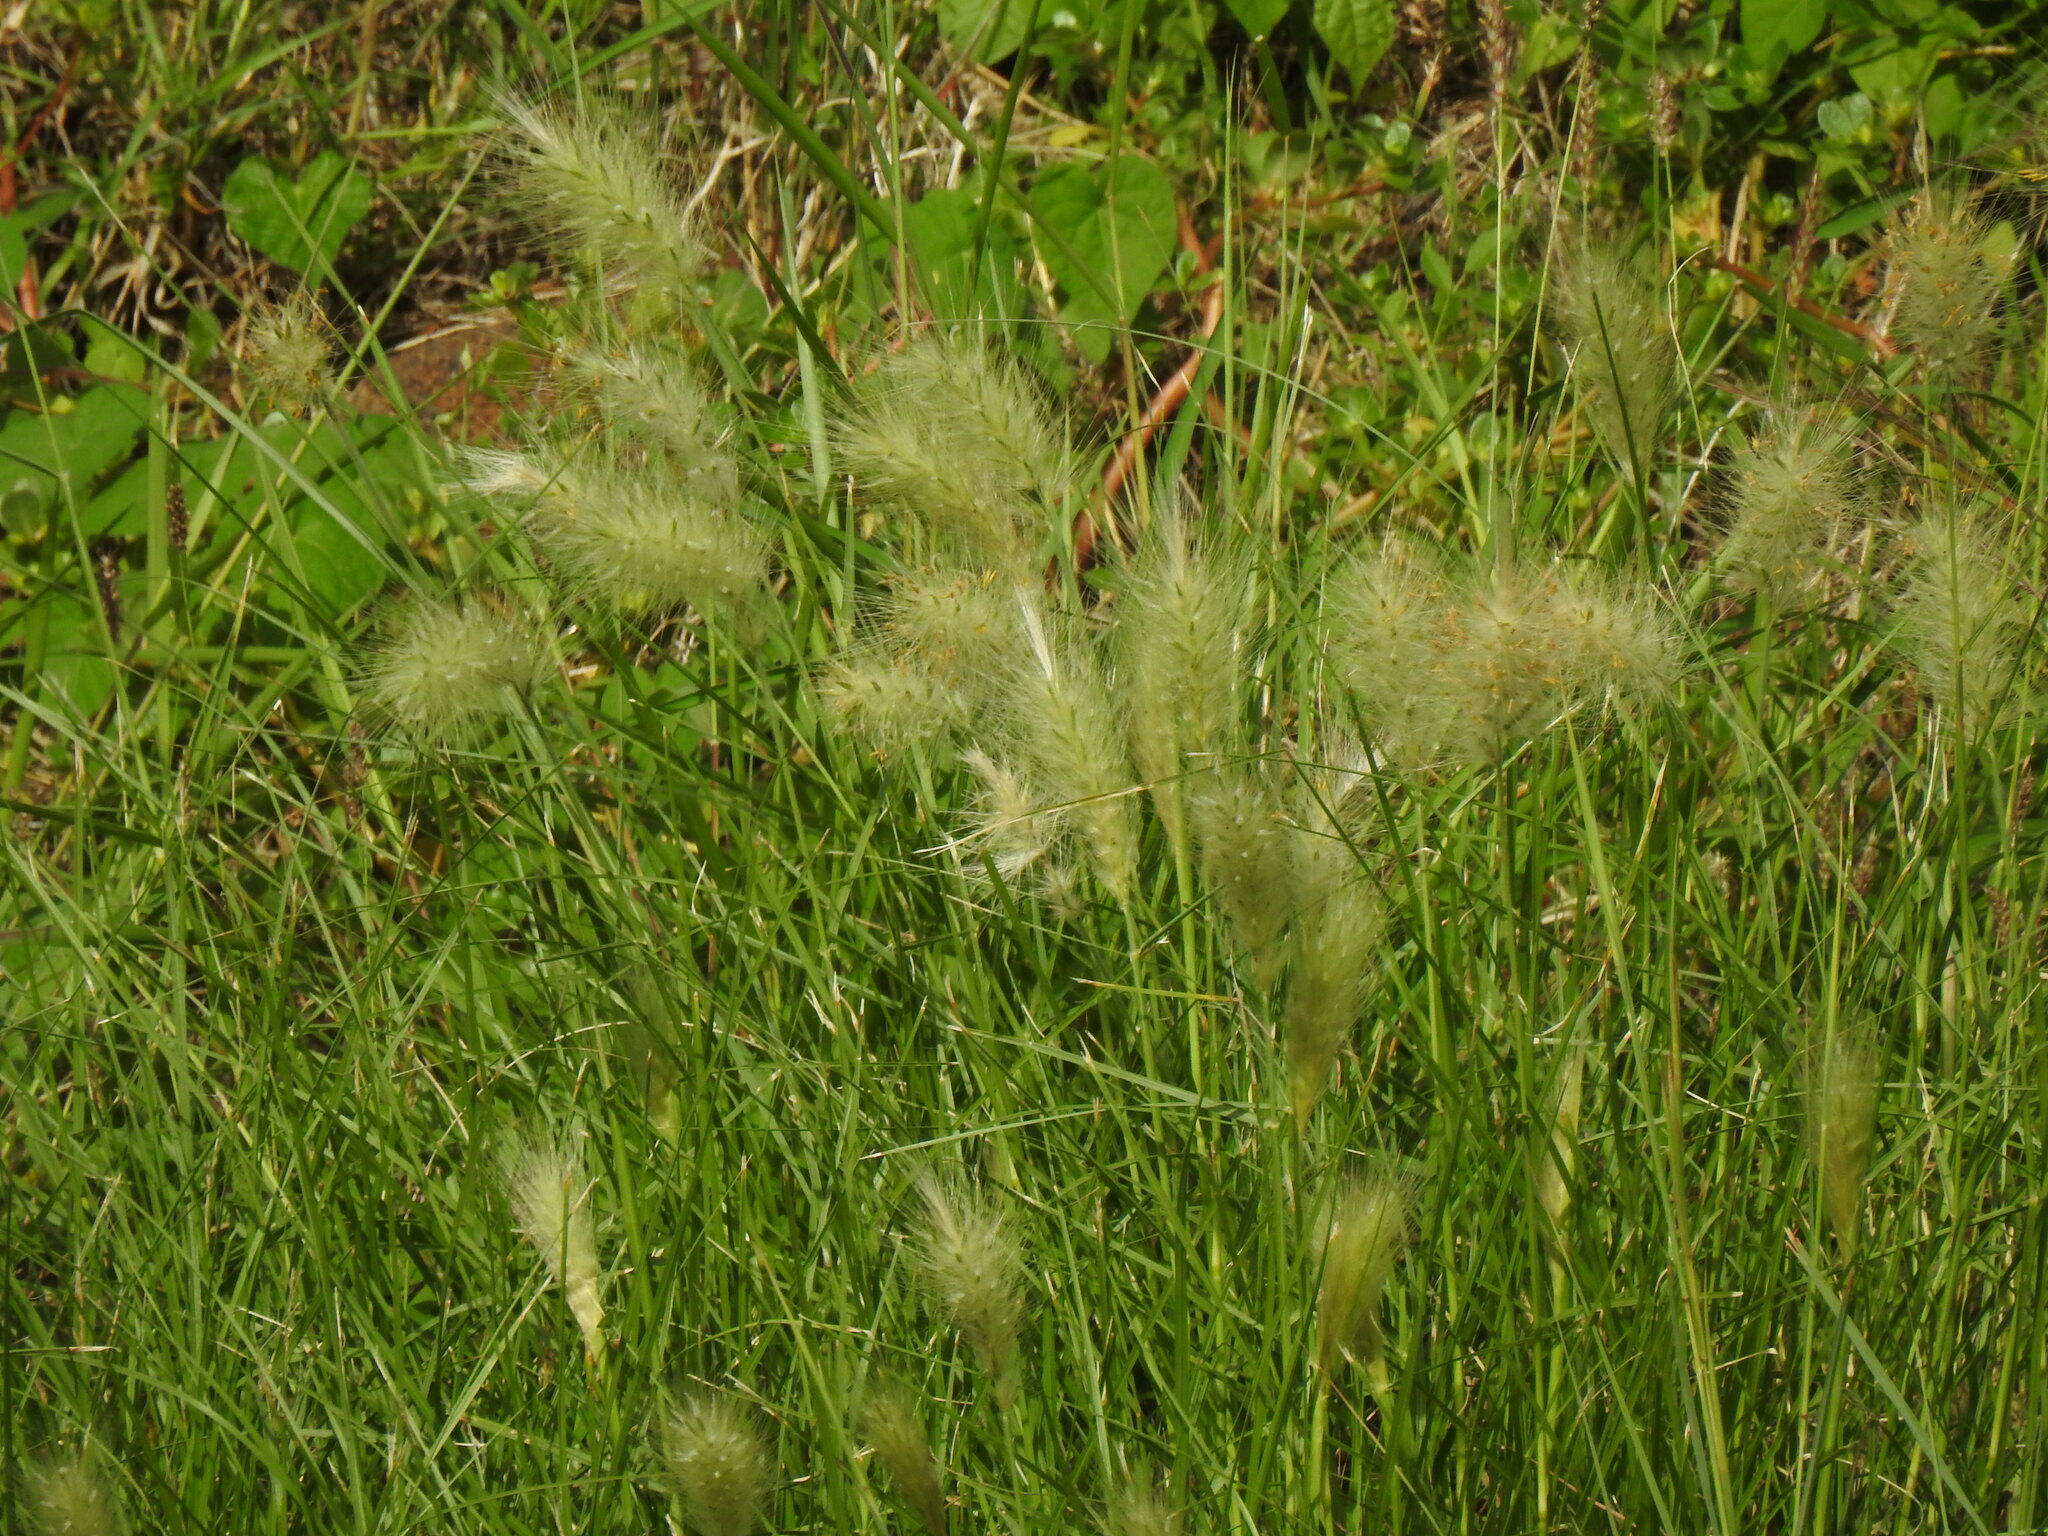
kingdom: Plantae
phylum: Tracheophyta
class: Liliopsida
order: Poales
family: Poaceae
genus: Cenchrus
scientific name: Cenchrus longisetus
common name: Feathertop
